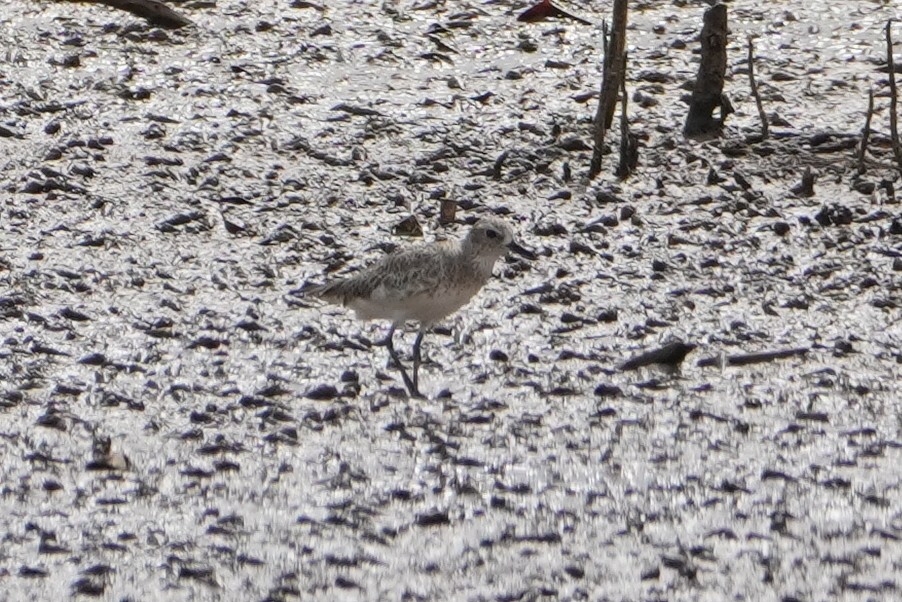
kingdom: Animalia
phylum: Chordata
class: Aves
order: Charadriiformes
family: Charadriidae
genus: Pluvialis
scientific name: Pluvialis squatarola
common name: Grey plover
